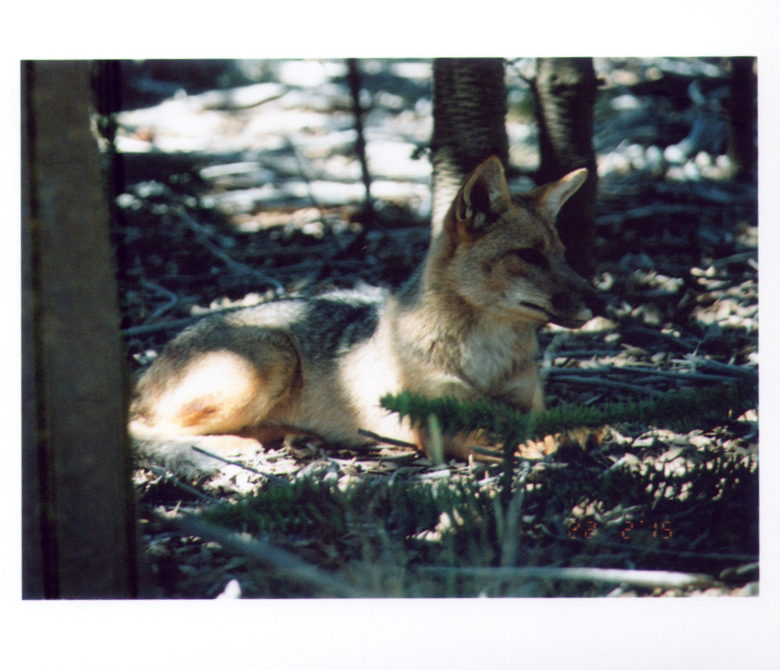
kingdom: Animalia
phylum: Chordata
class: Mammalia
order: Carnivora
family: Canidae
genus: Lycalopex
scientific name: Lycalopex culpaeus
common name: Culpeo
